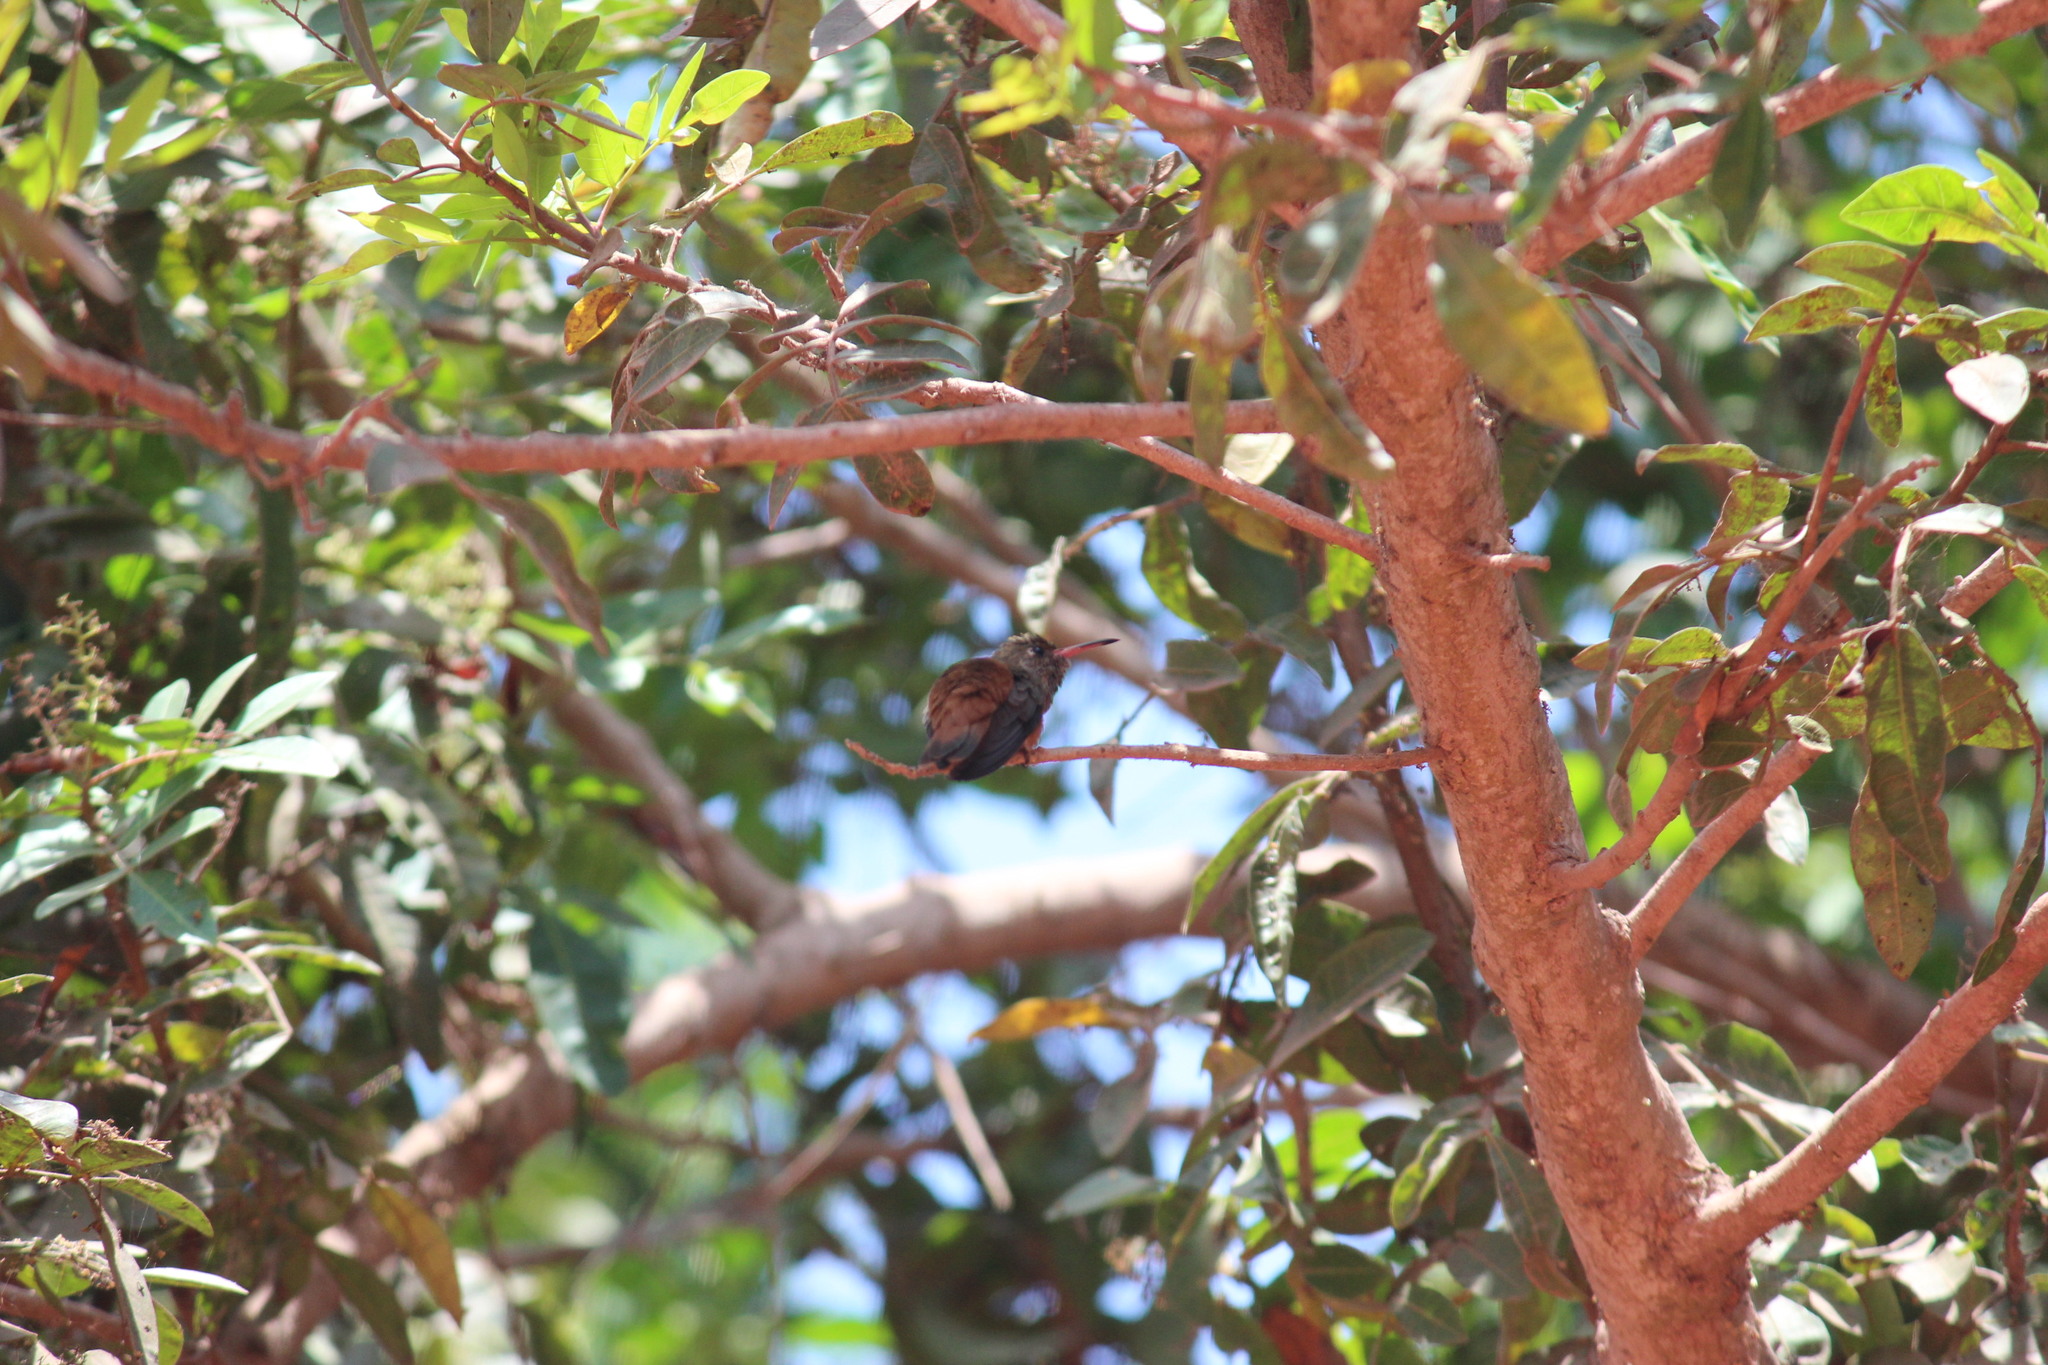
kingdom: Animalia
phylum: Chordata
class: Aves
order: Apodiformes
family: Trochilidae
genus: Amazilis
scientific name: Amazilis amazilia
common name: Amazilia hummingbird
